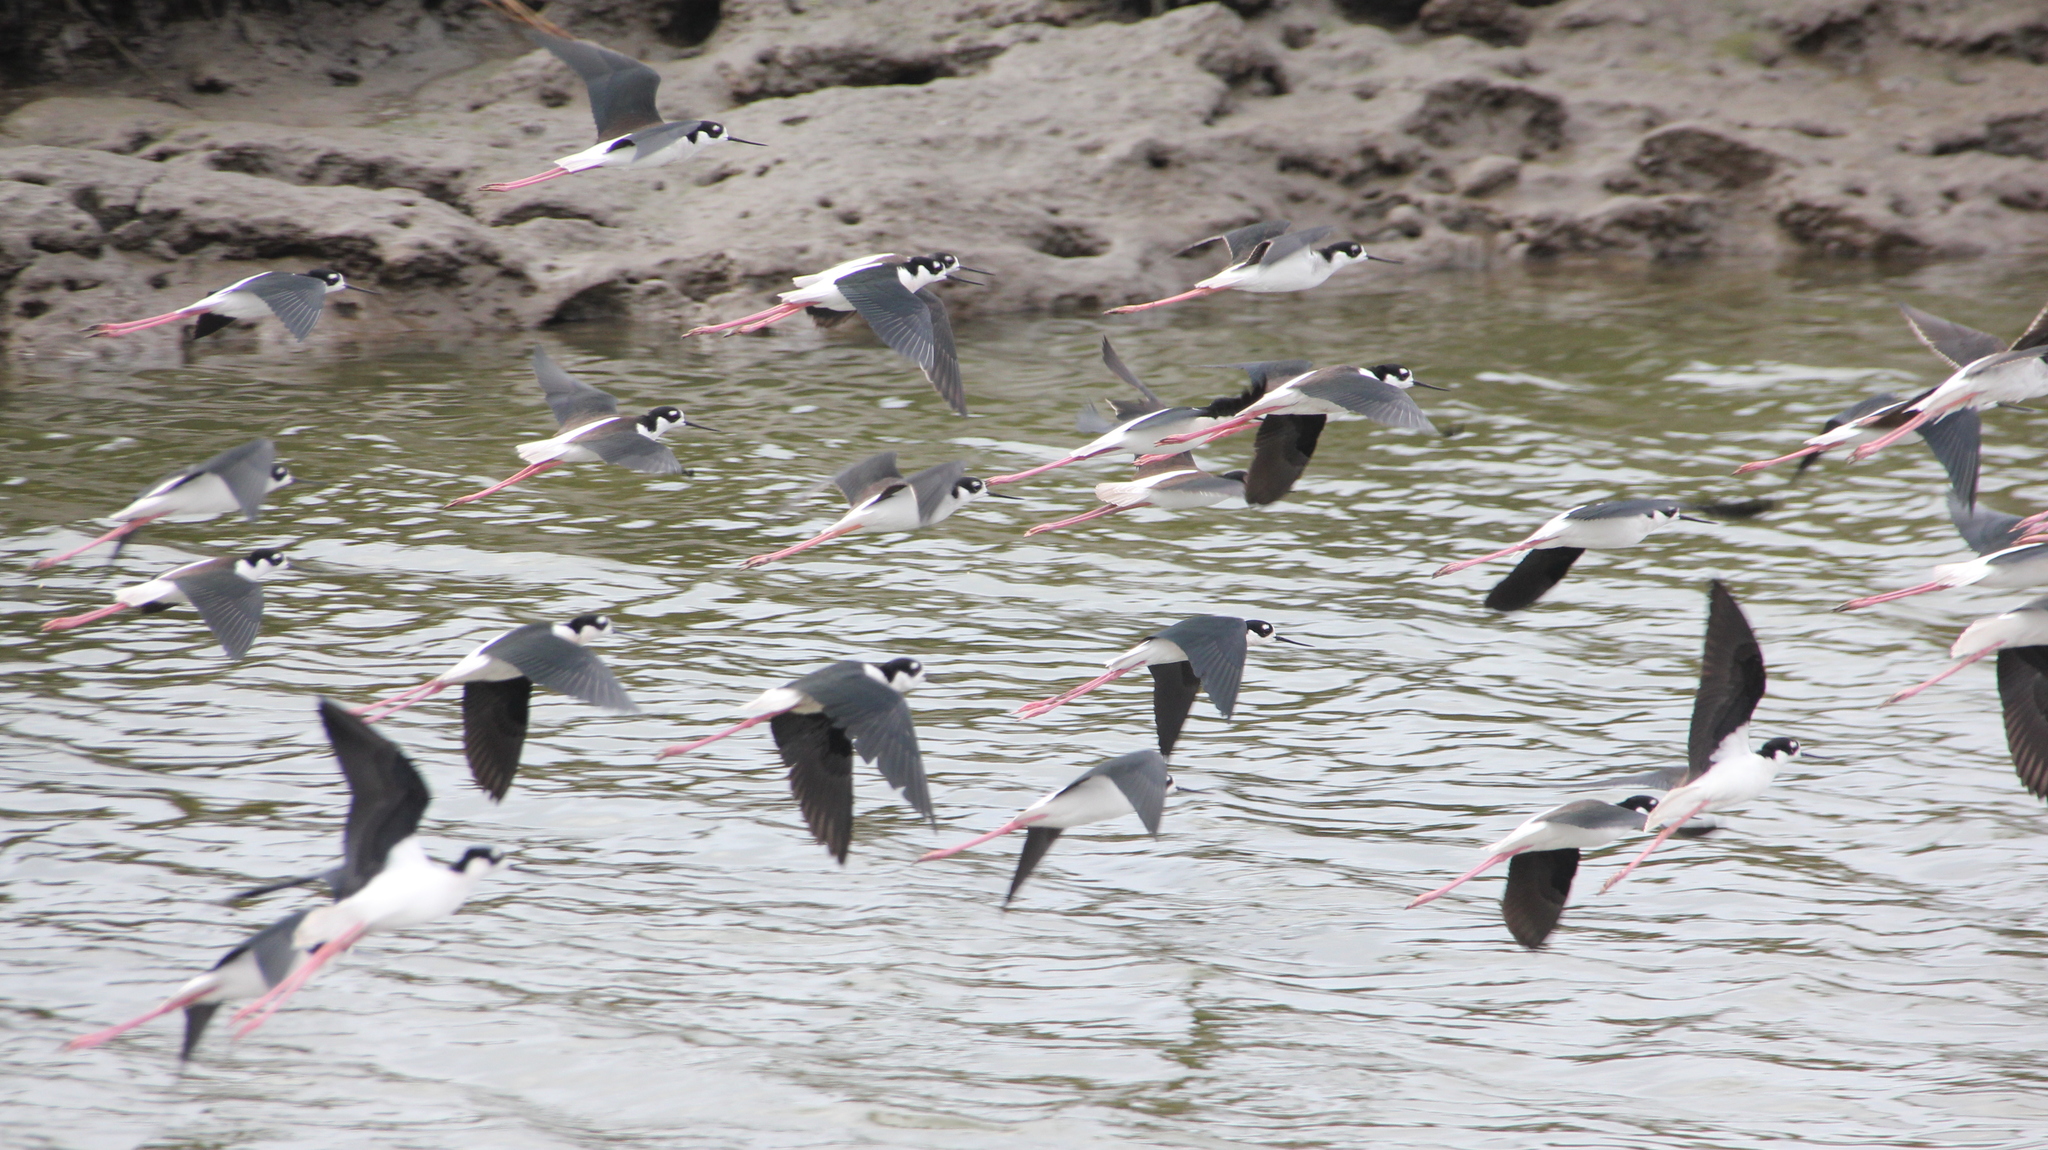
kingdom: Animalia
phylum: Chordata
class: Aves
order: Charadriiformes
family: Recurvirostridae
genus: Himantopus
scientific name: Himantopus mexicanus
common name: Black-necked stilt
